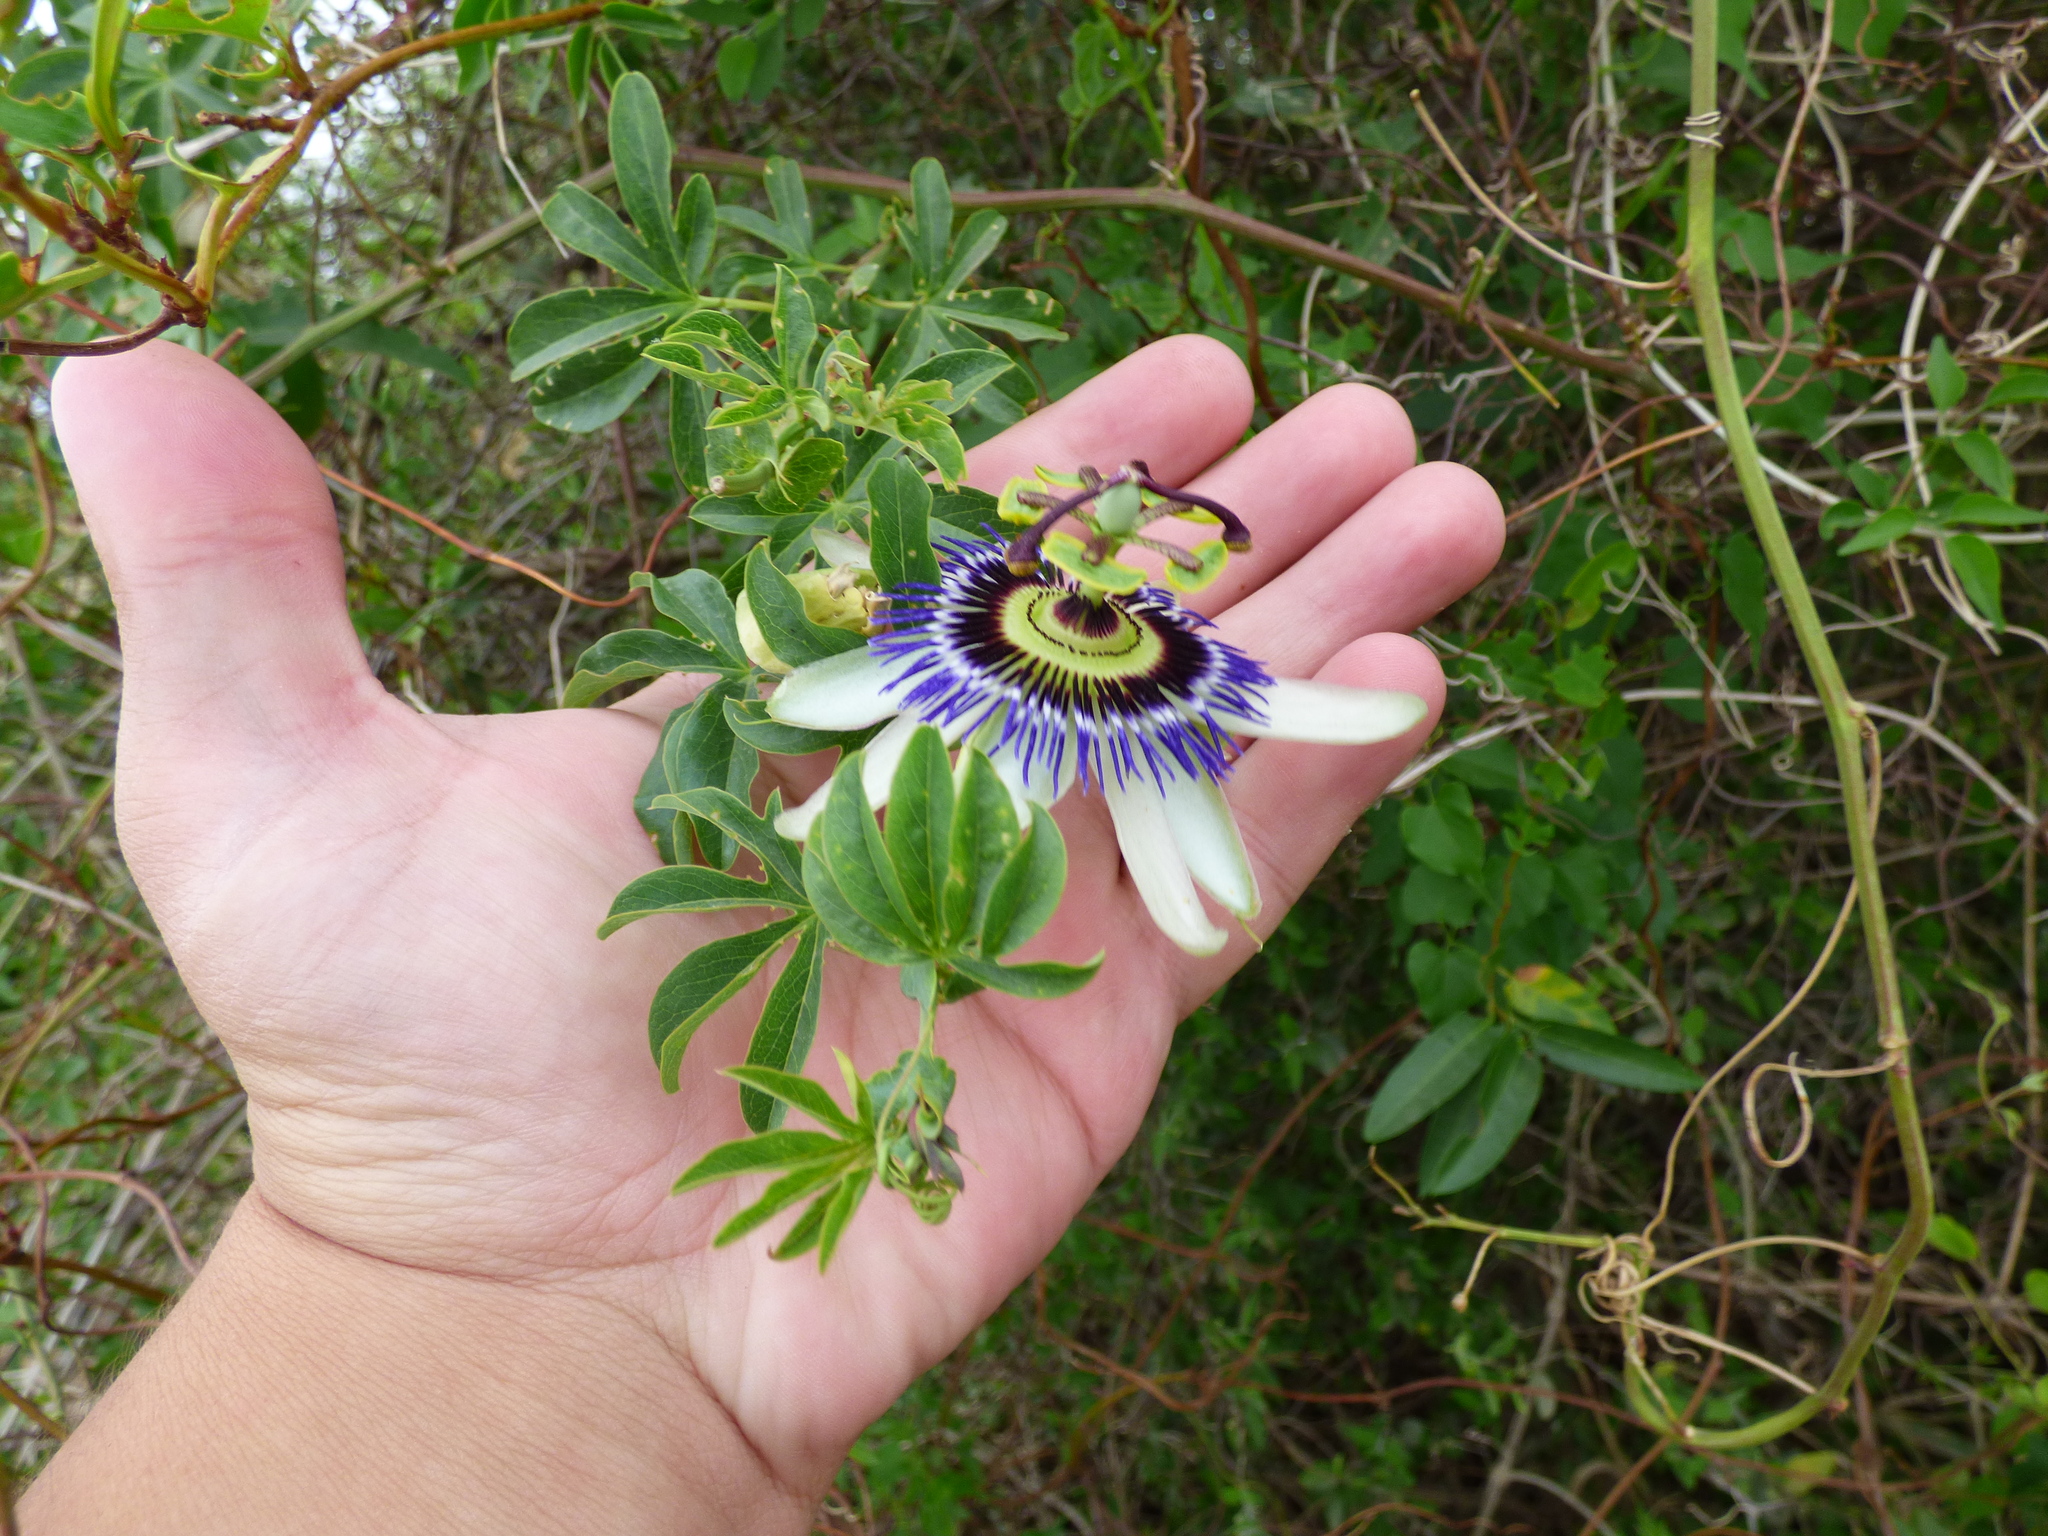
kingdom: Plantae
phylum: Tracheophyta
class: Magnoliopsida
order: Malpighiales
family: Passifloraceae
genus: Passiflora
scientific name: Passiflora caerulea
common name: Blue passionflower
